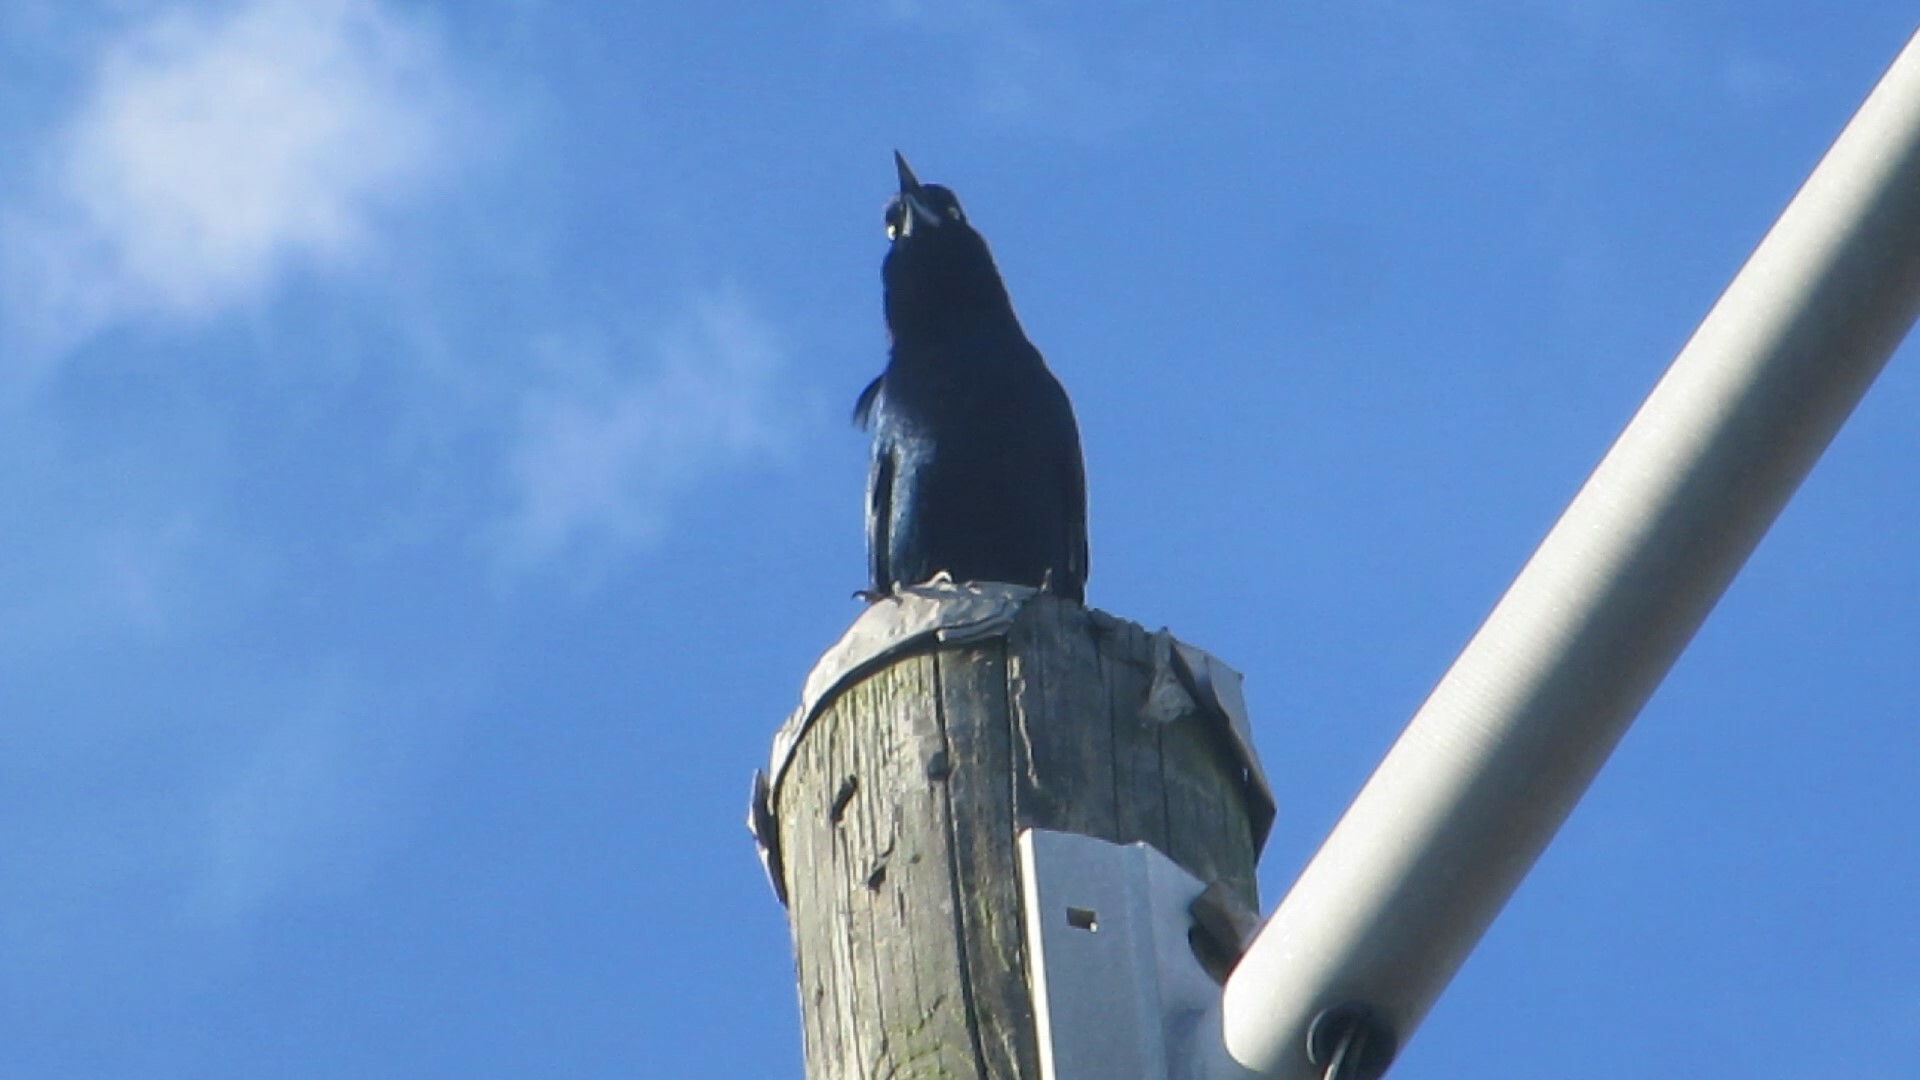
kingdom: Animalia
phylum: Chordata
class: Aves
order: Passeriformes
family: Icteridae
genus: Quiscalus
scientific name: Quiscalus major
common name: Boat-tailed grackle
